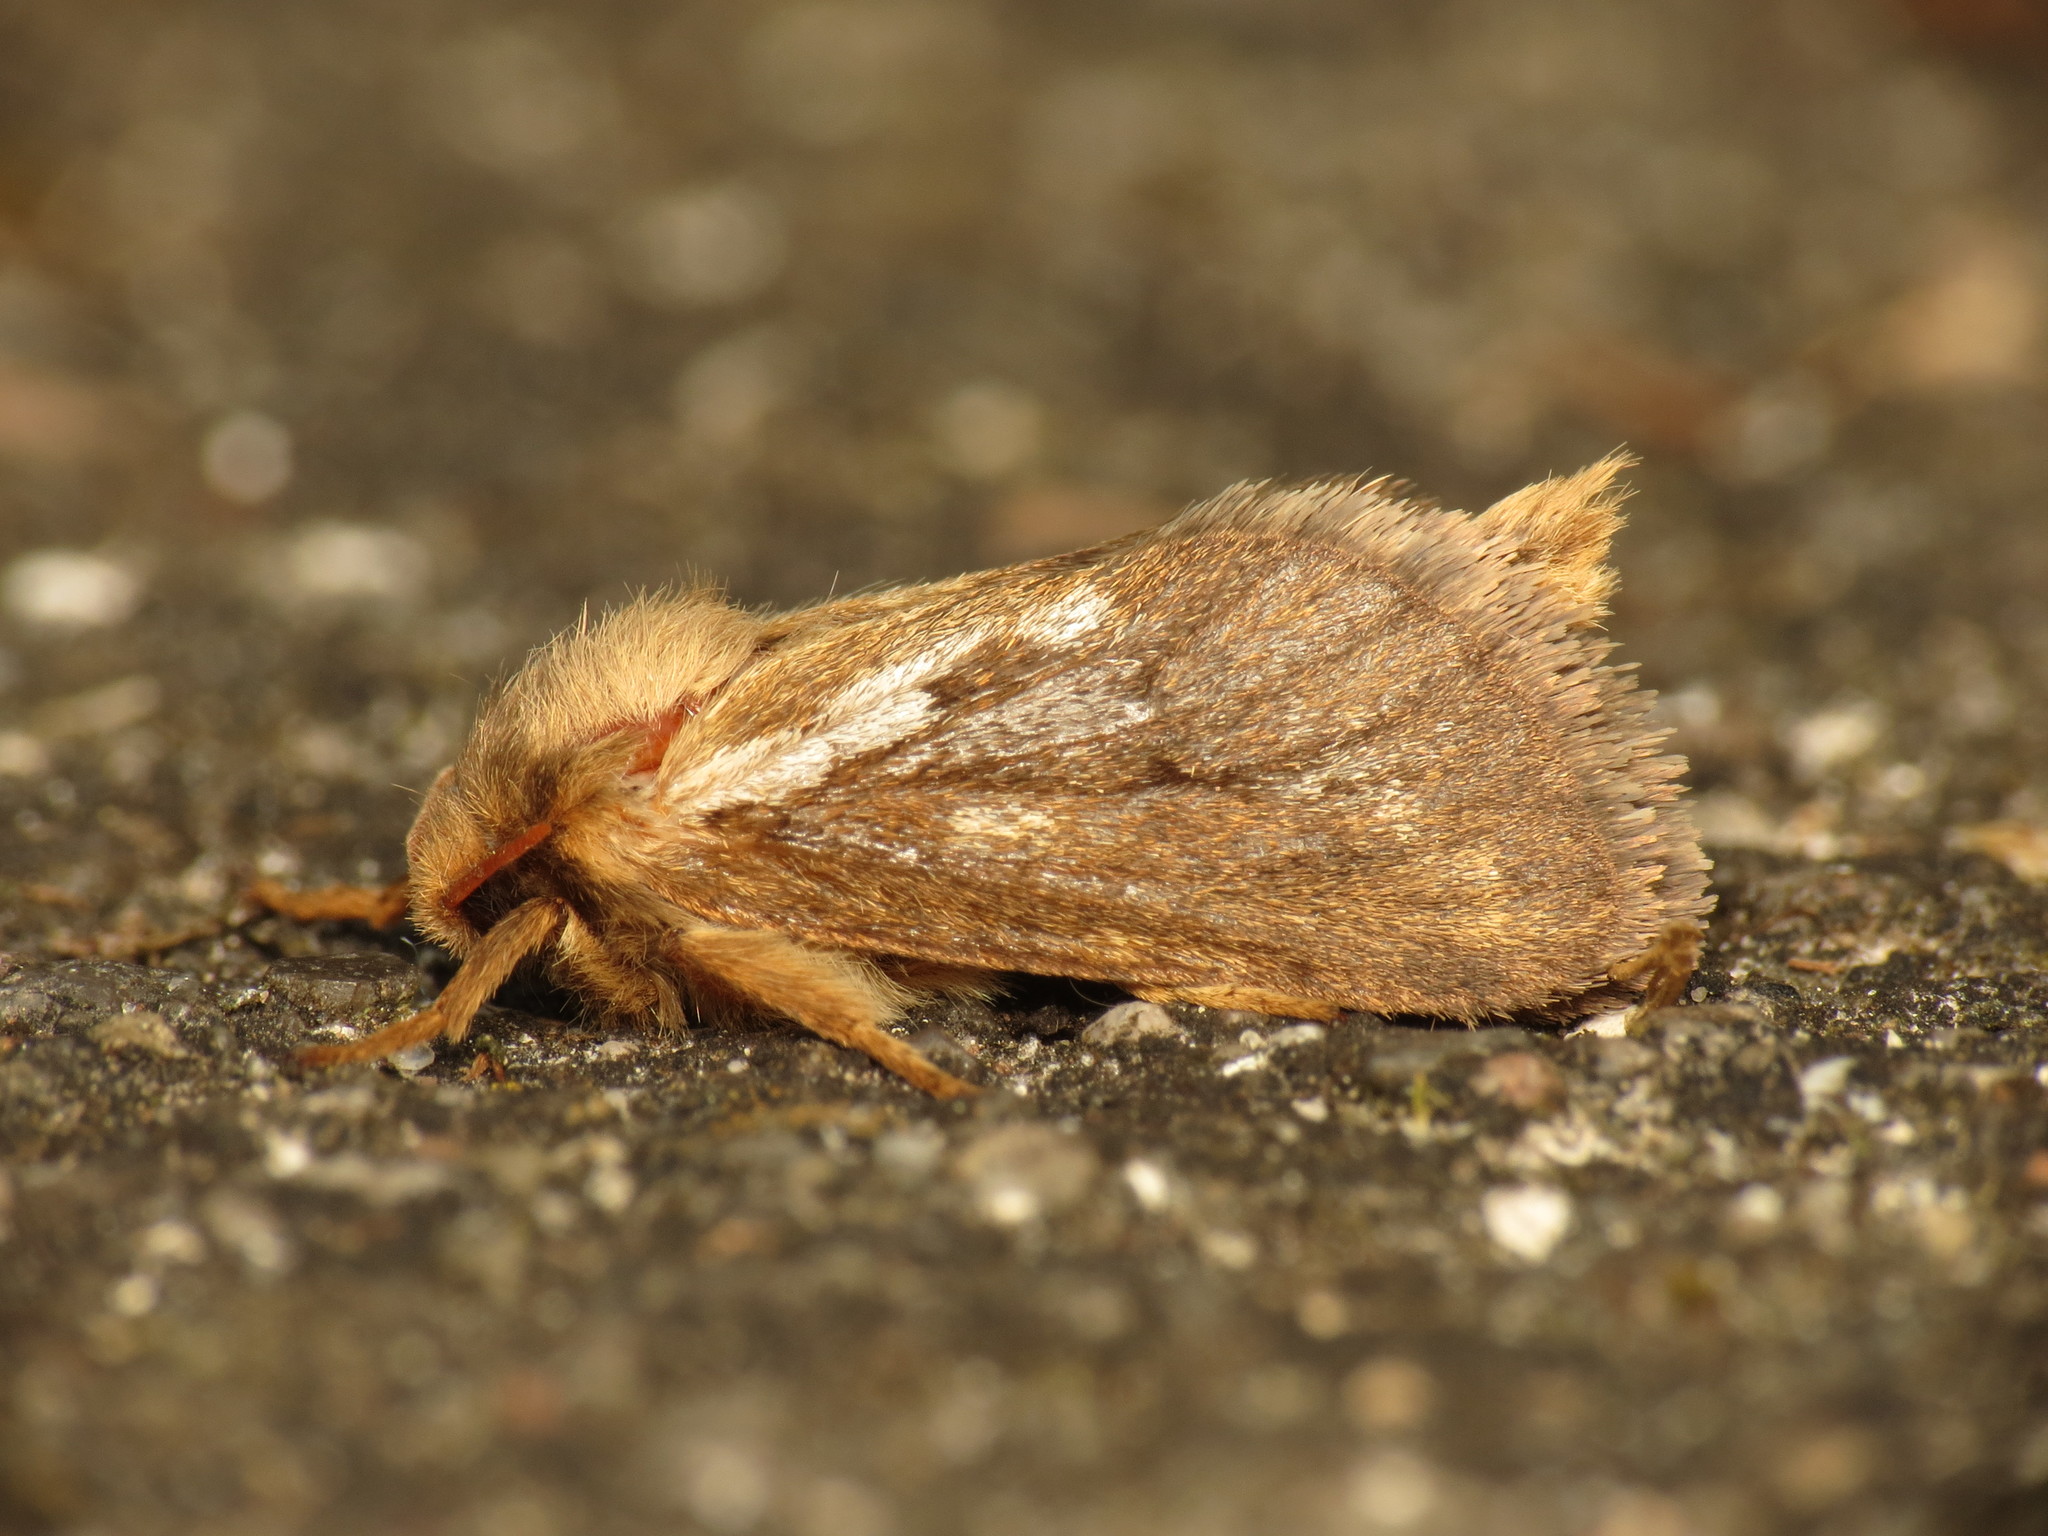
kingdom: Animalia
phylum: Arthropoda
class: Insecta
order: Lepidoptera
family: Hepialidae
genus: Korscheltellus
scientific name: Korscheltellus lupulina
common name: Common swift
